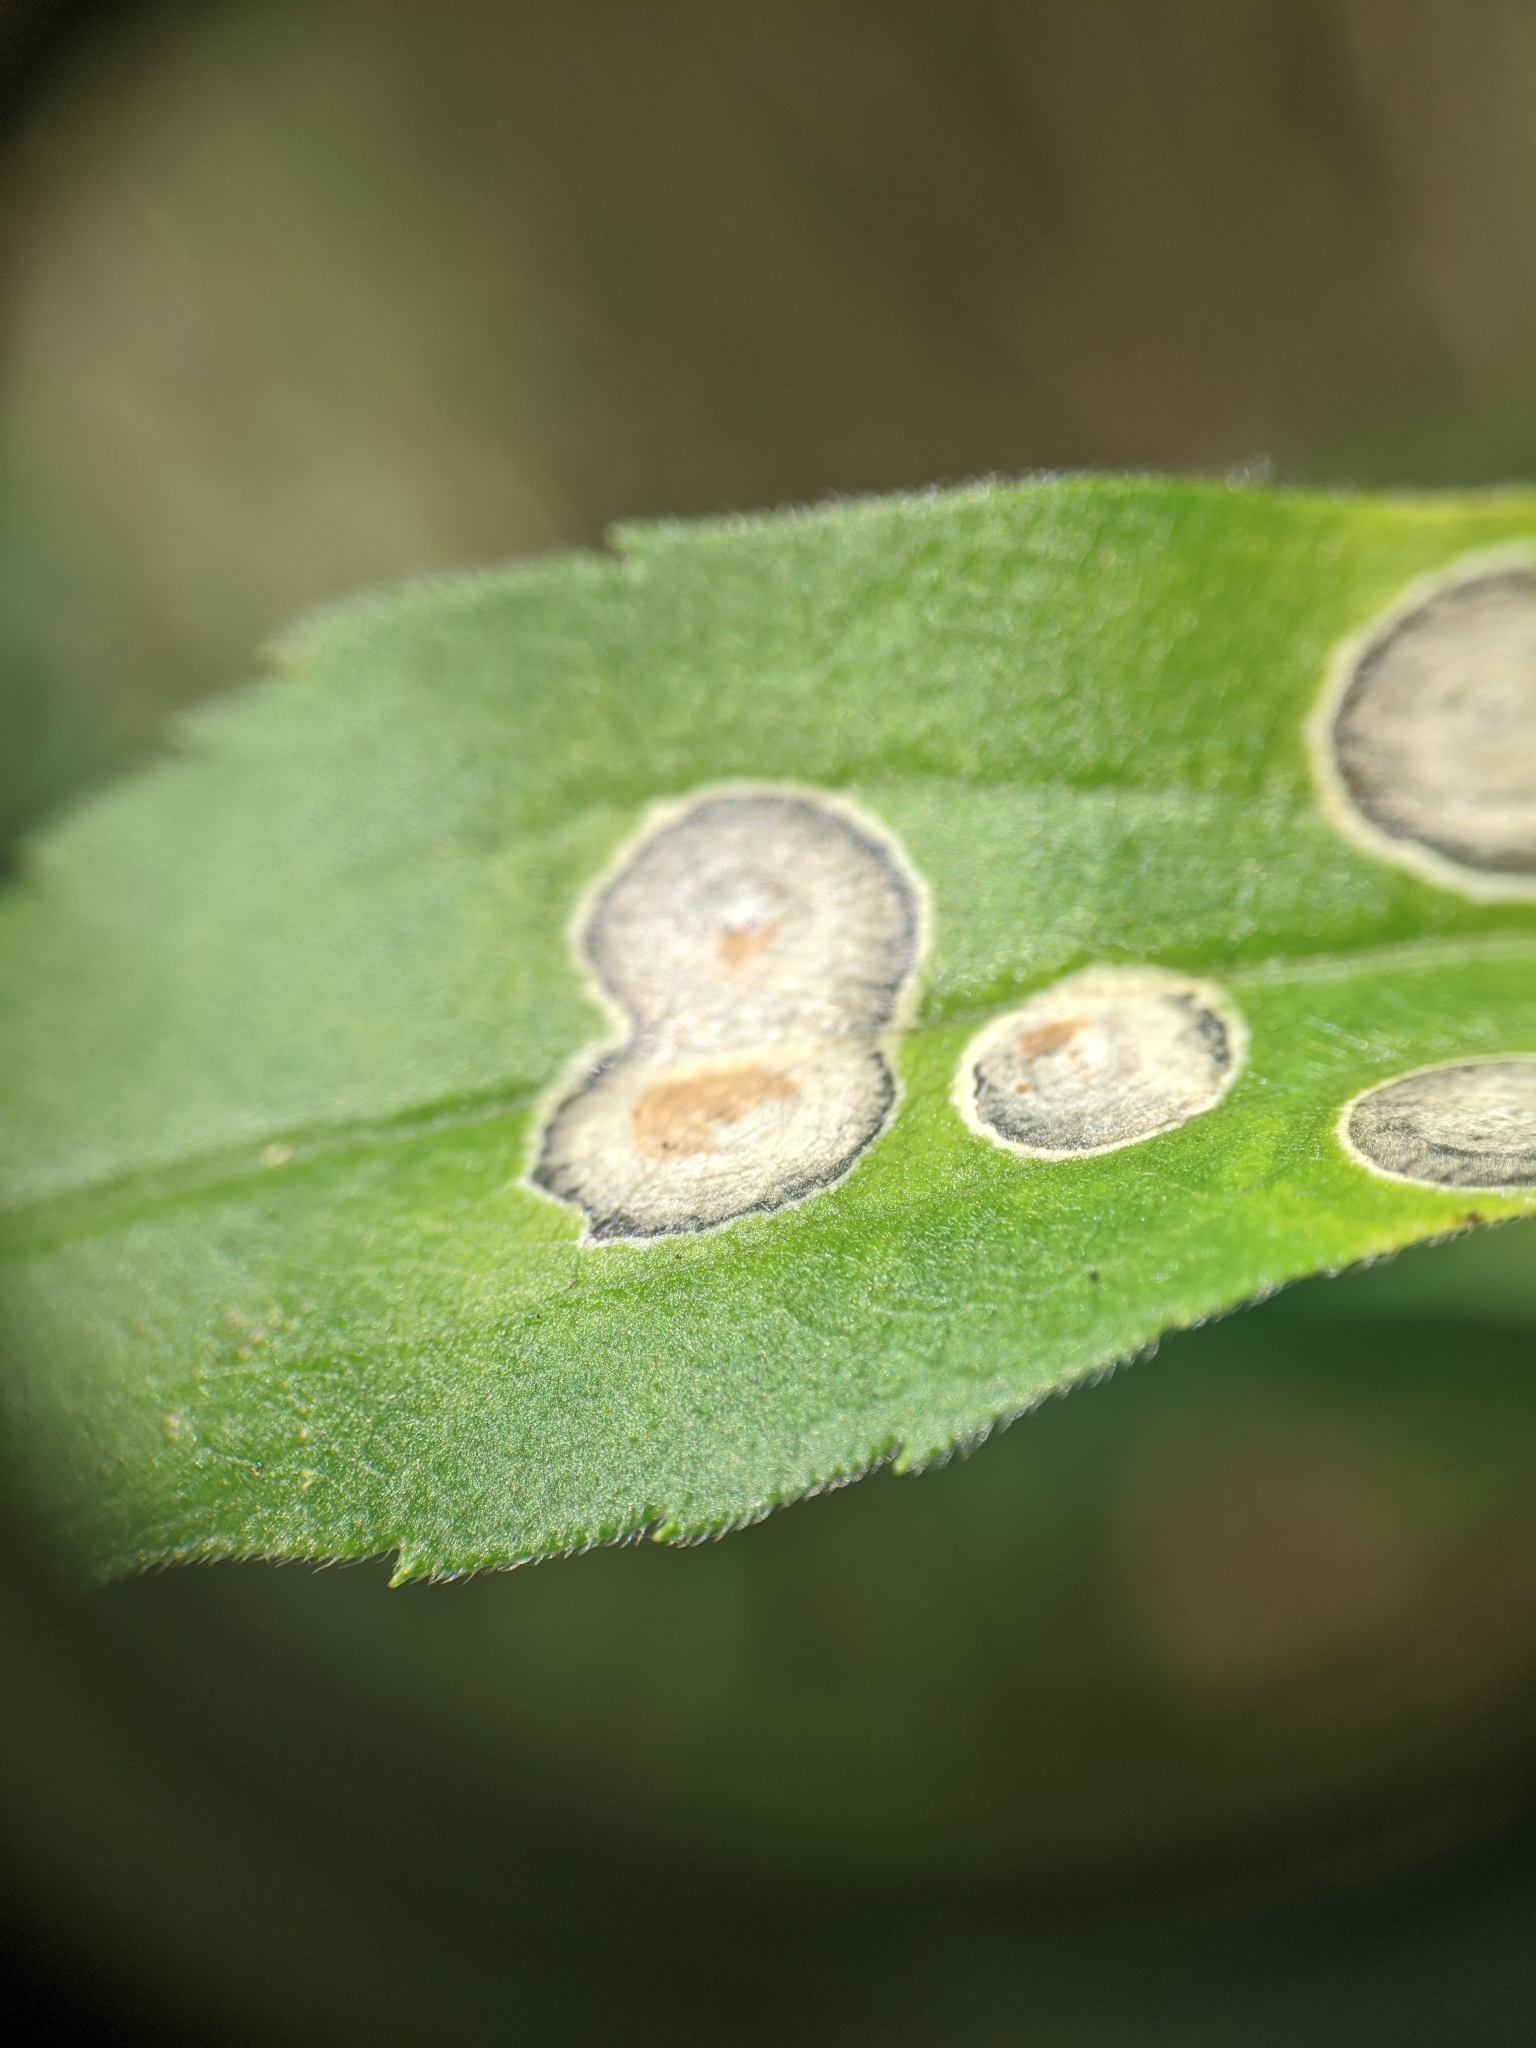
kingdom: Animalia
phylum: Arthropoda
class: Insecta
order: Diptera
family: Cecidomyiidae
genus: Asteromyia
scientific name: Asteromyia carbonifera
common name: Carbonifera goldenrod gall midge
